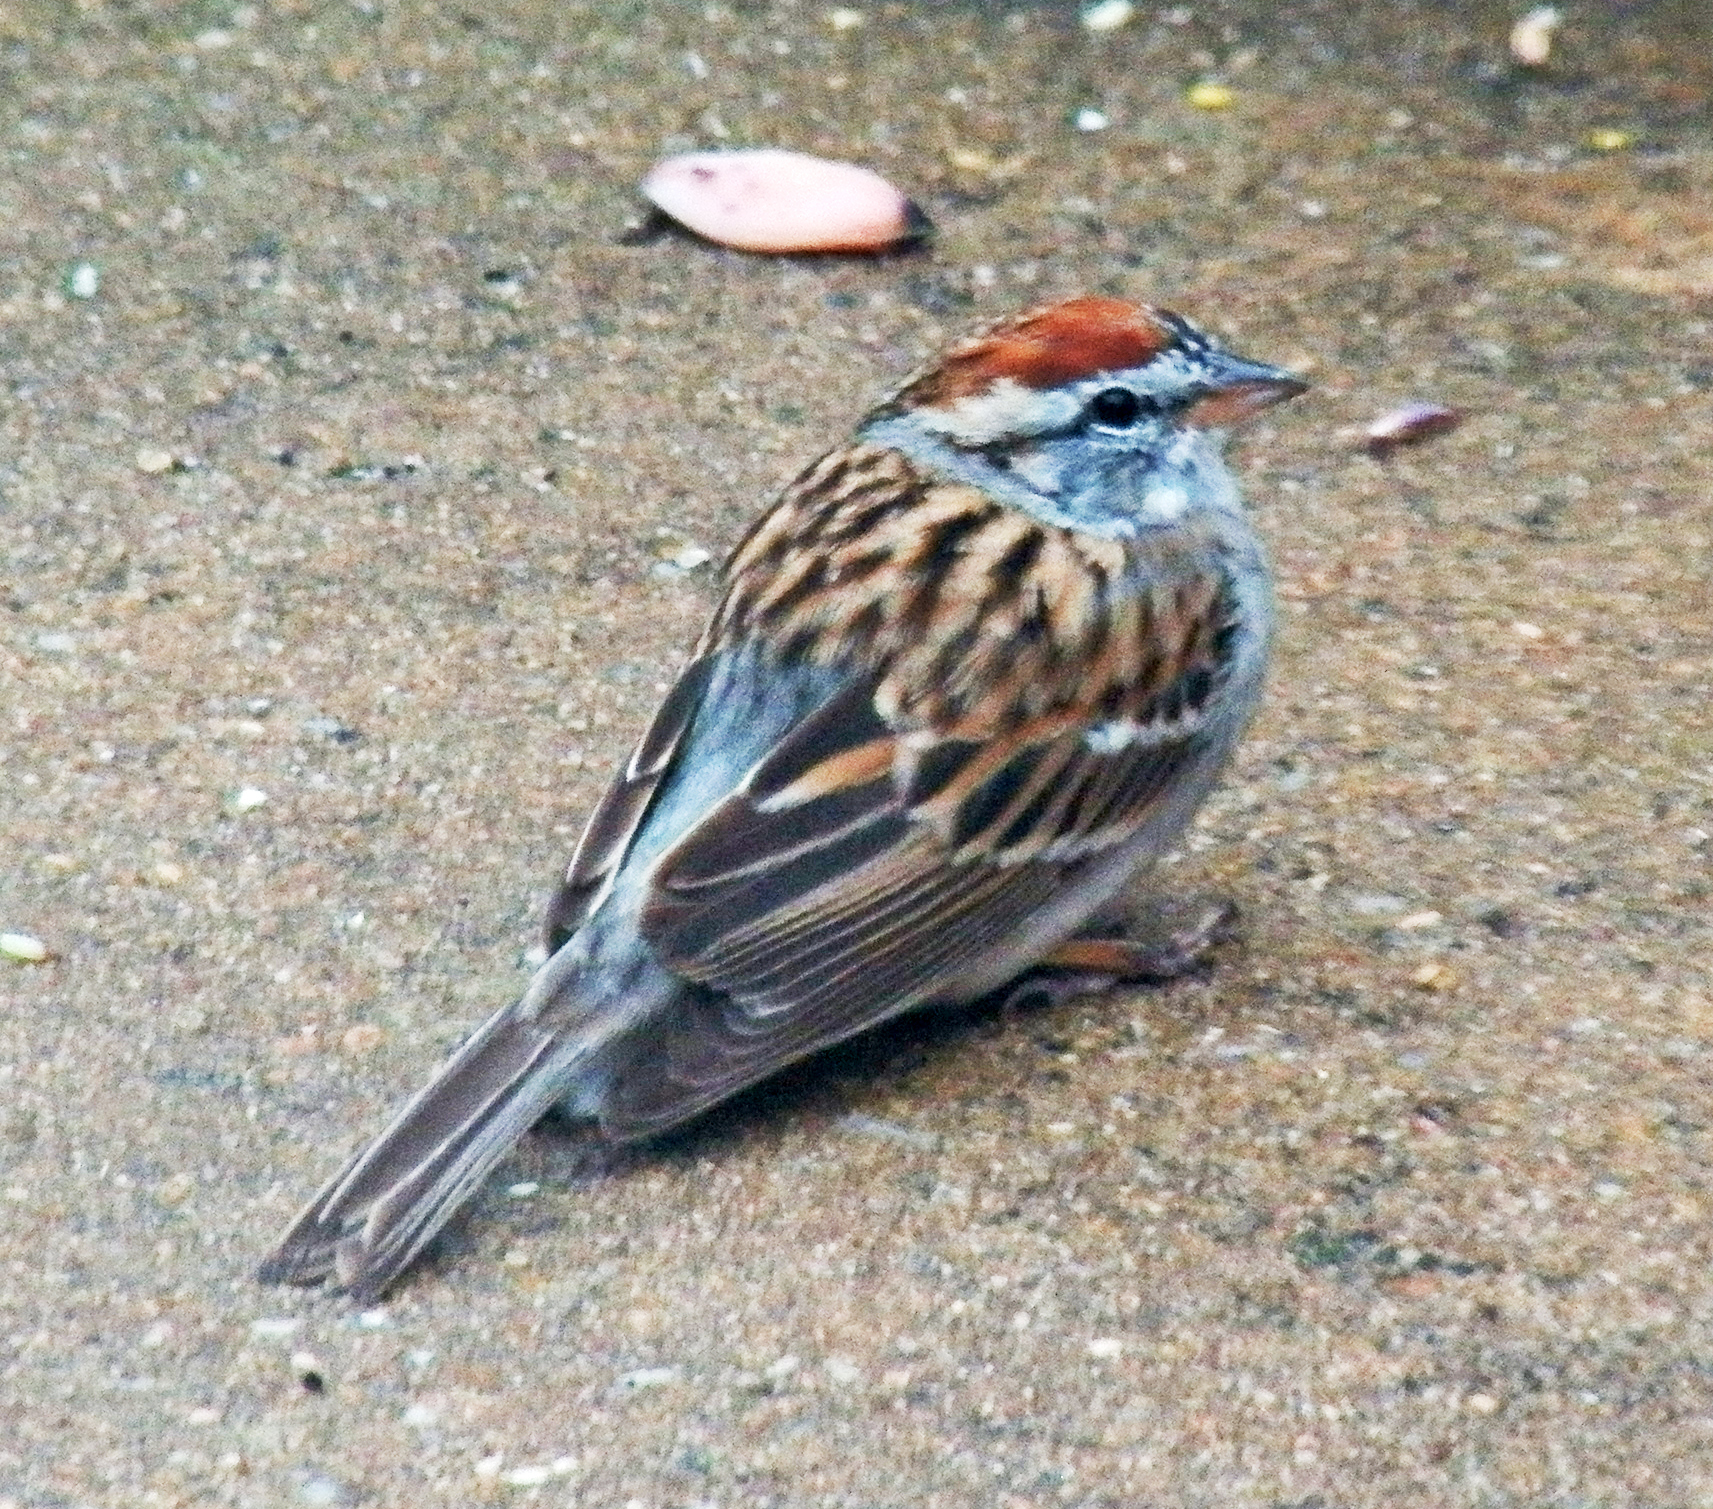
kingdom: Animalia
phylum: Chordata
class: Aves
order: Passeriformes
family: Passerellidae
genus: Spizella
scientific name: Spizella passerina
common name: Chipping sparrow
